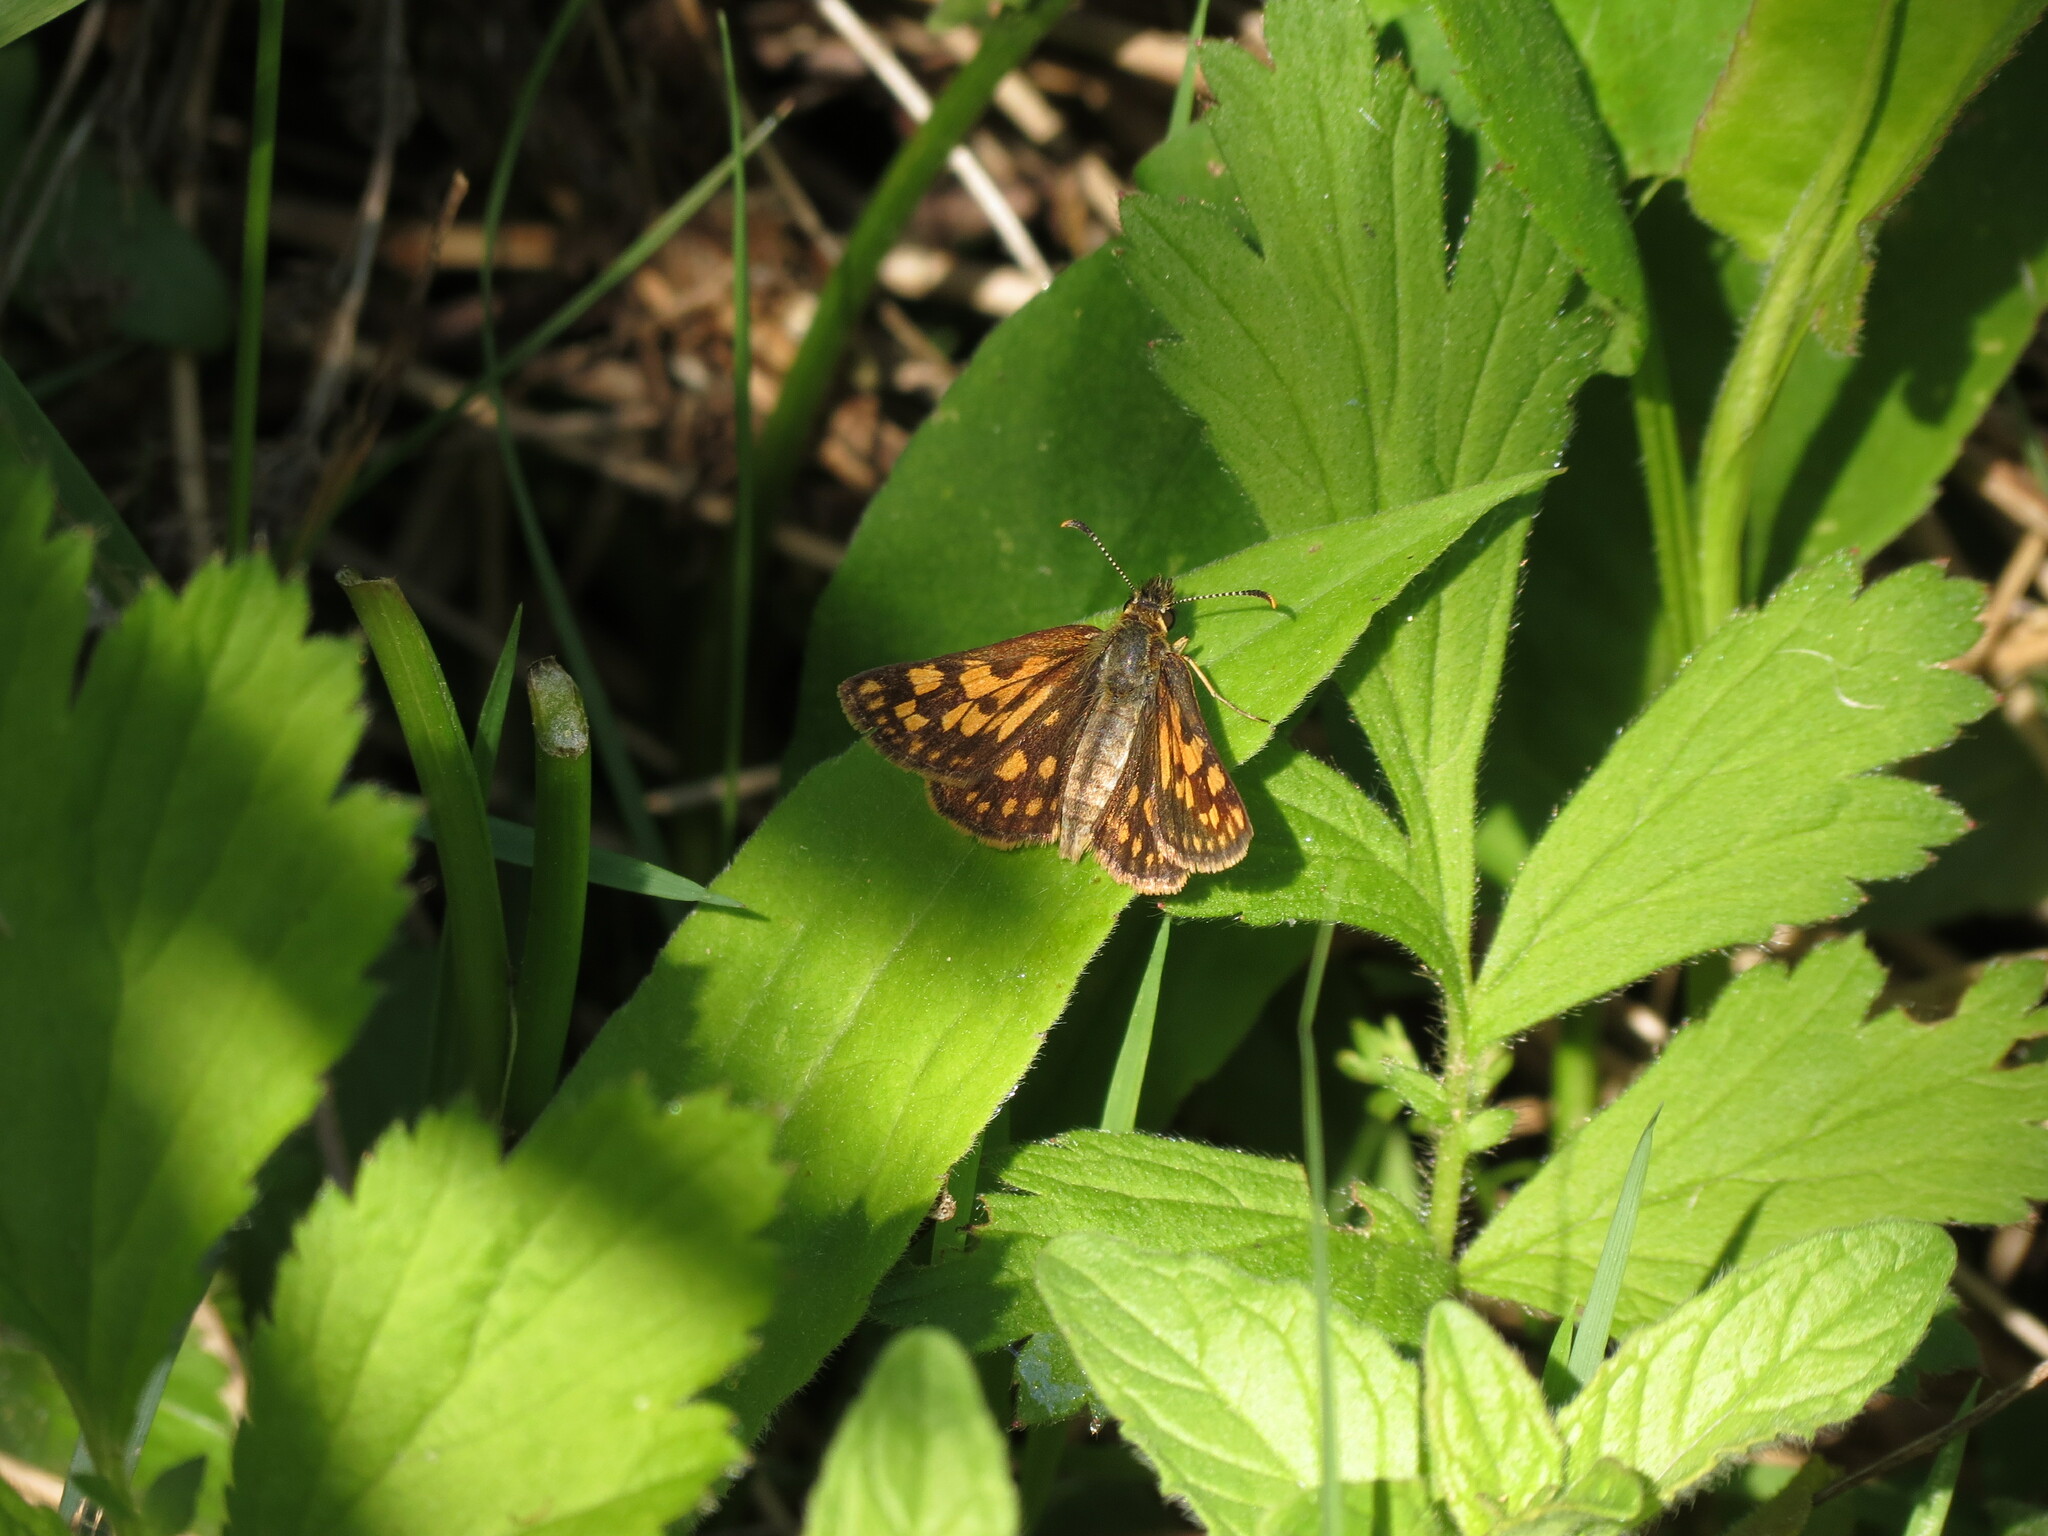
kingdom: Animalia
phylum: Arthropoda
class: Insecta
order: Lepidoptera
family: Hesperiidae
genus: Carterocephalus
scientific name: Carterocephalus mandan
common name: Arctic skipperling
